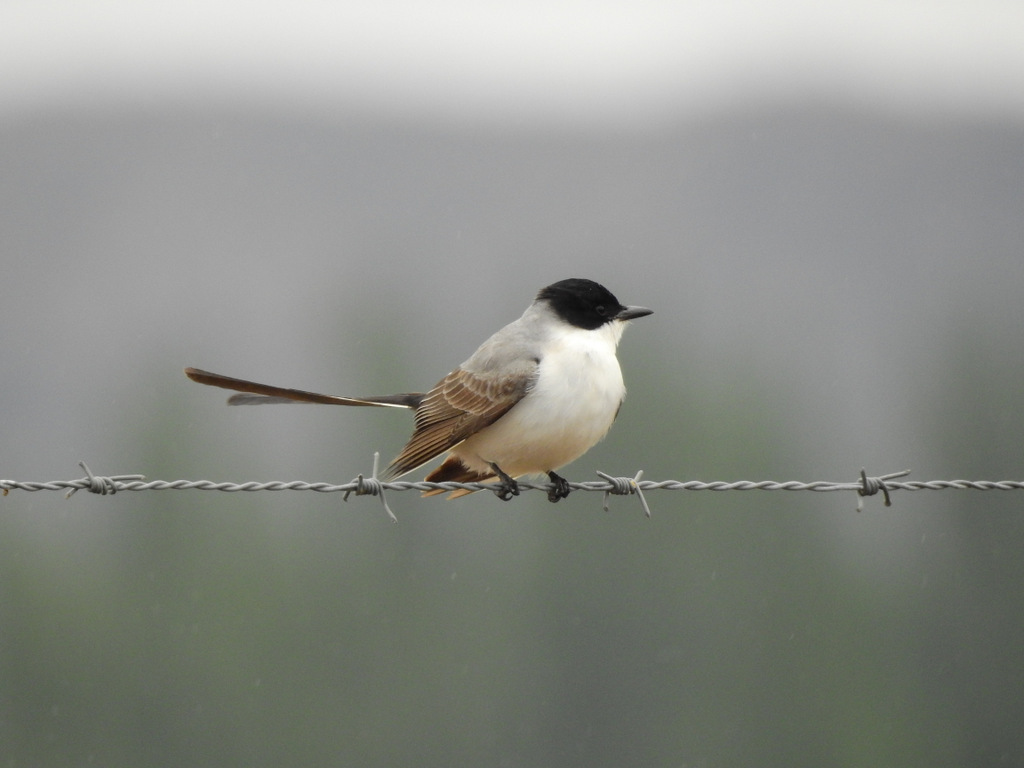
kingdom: Animalia
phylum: Chordata
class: Aves
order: Passeriformes
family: Tyrannidae
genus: Tyrannus
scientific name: Tyrannus savana
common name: Fork-tailed flycatcher
